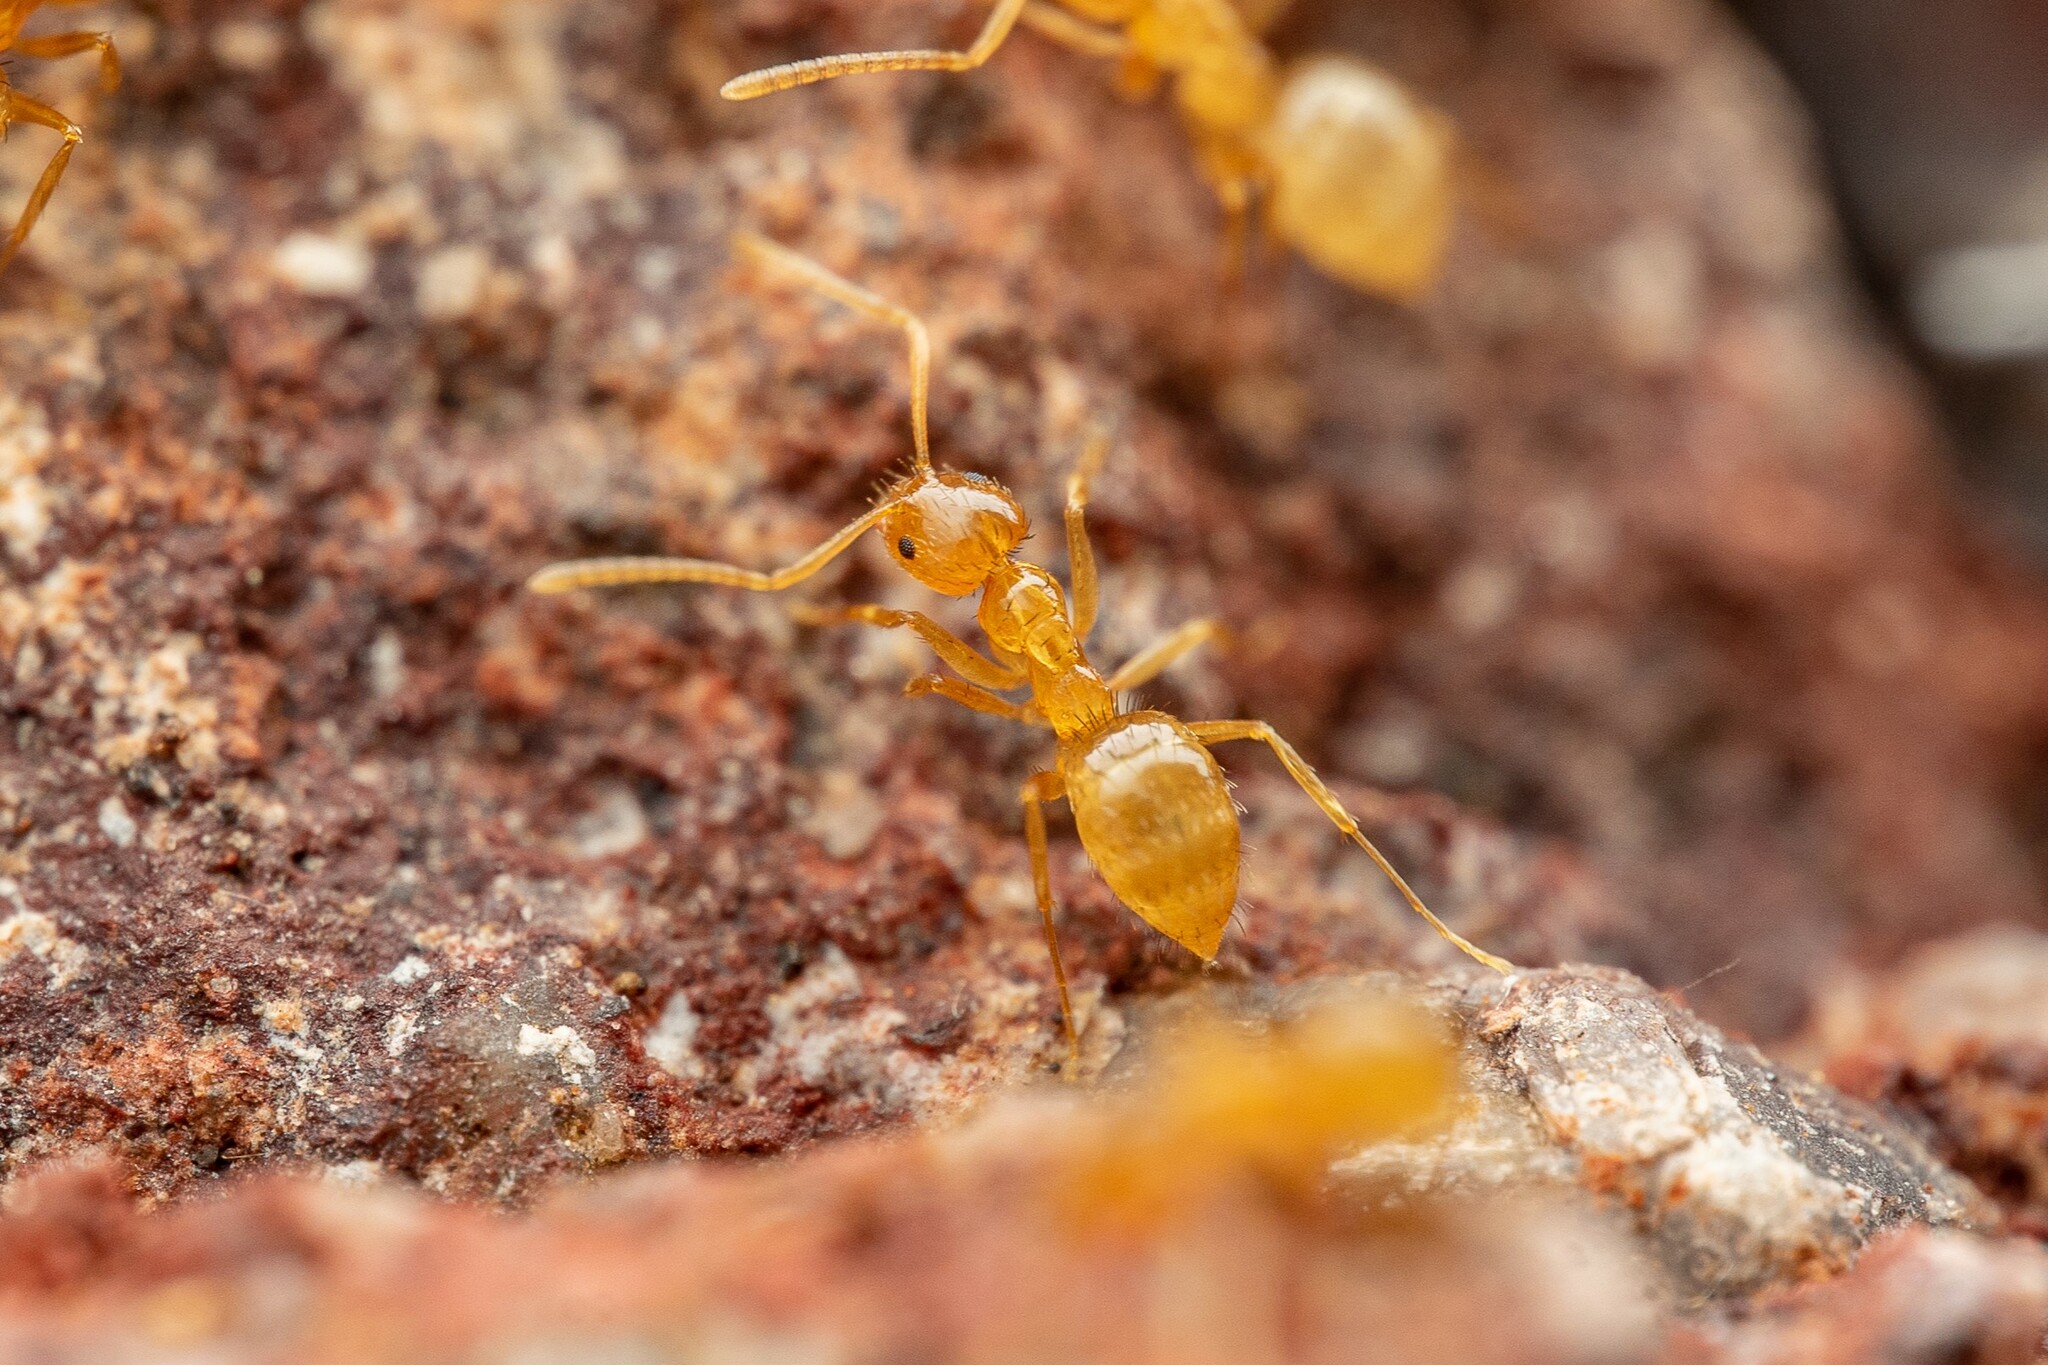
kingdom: Animalia
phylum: Arthropoda
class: Insecta
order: Hymenoptera
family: Formicidae
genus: Nylanderia
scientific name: Nylanderia terricola
